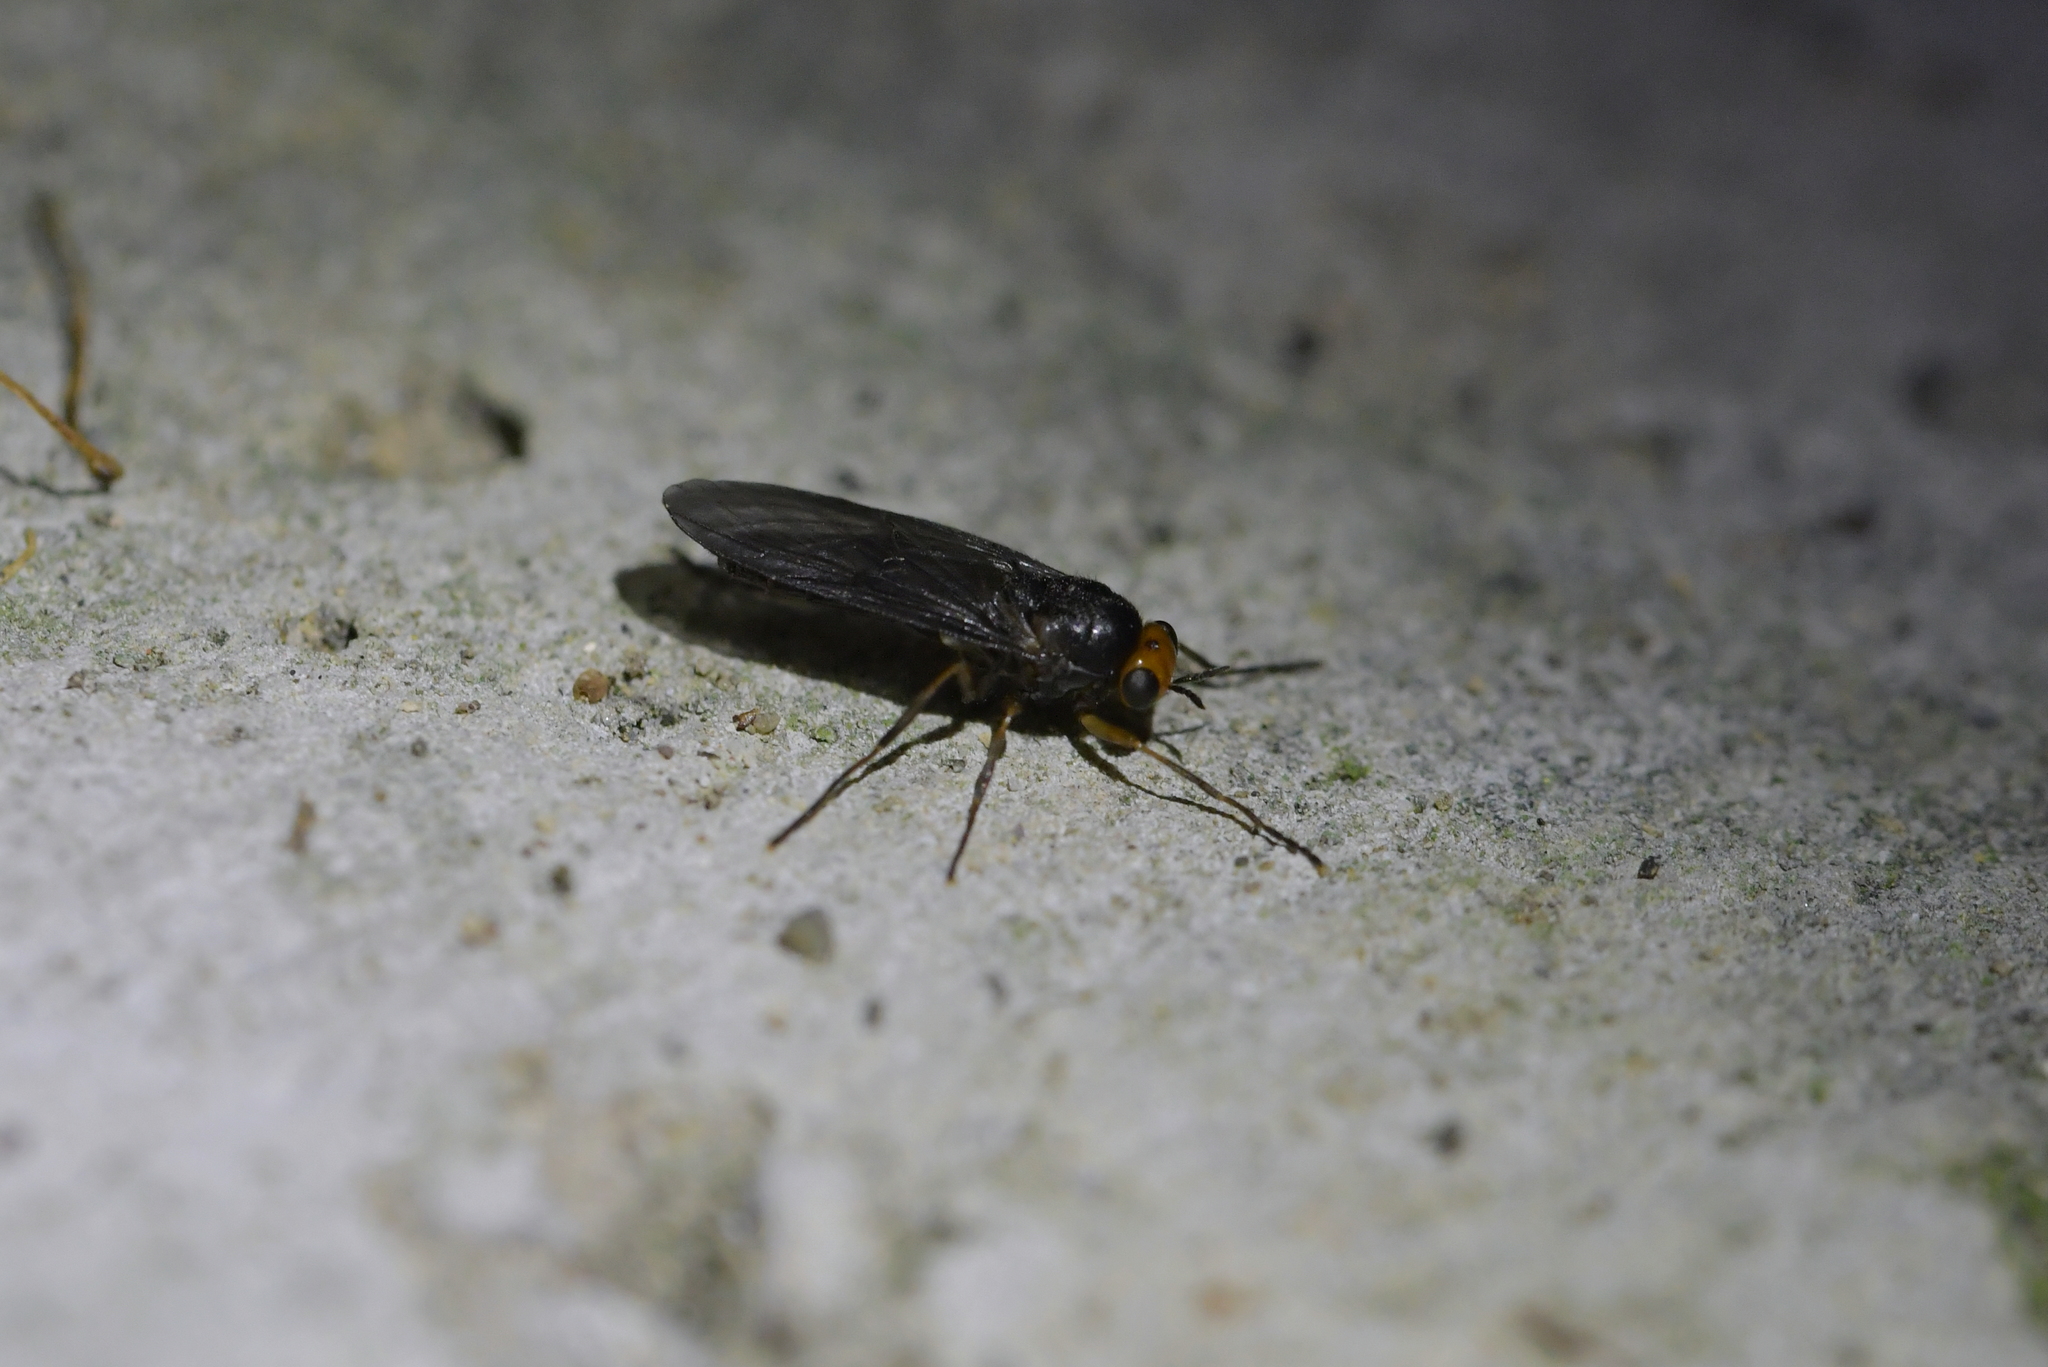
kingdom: Animalia
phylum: Arthropoda
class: Insecta
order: Diptera
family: Stratiomyidae
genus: Inopus
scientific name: Inopus rubriceps
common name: Soldier fly
